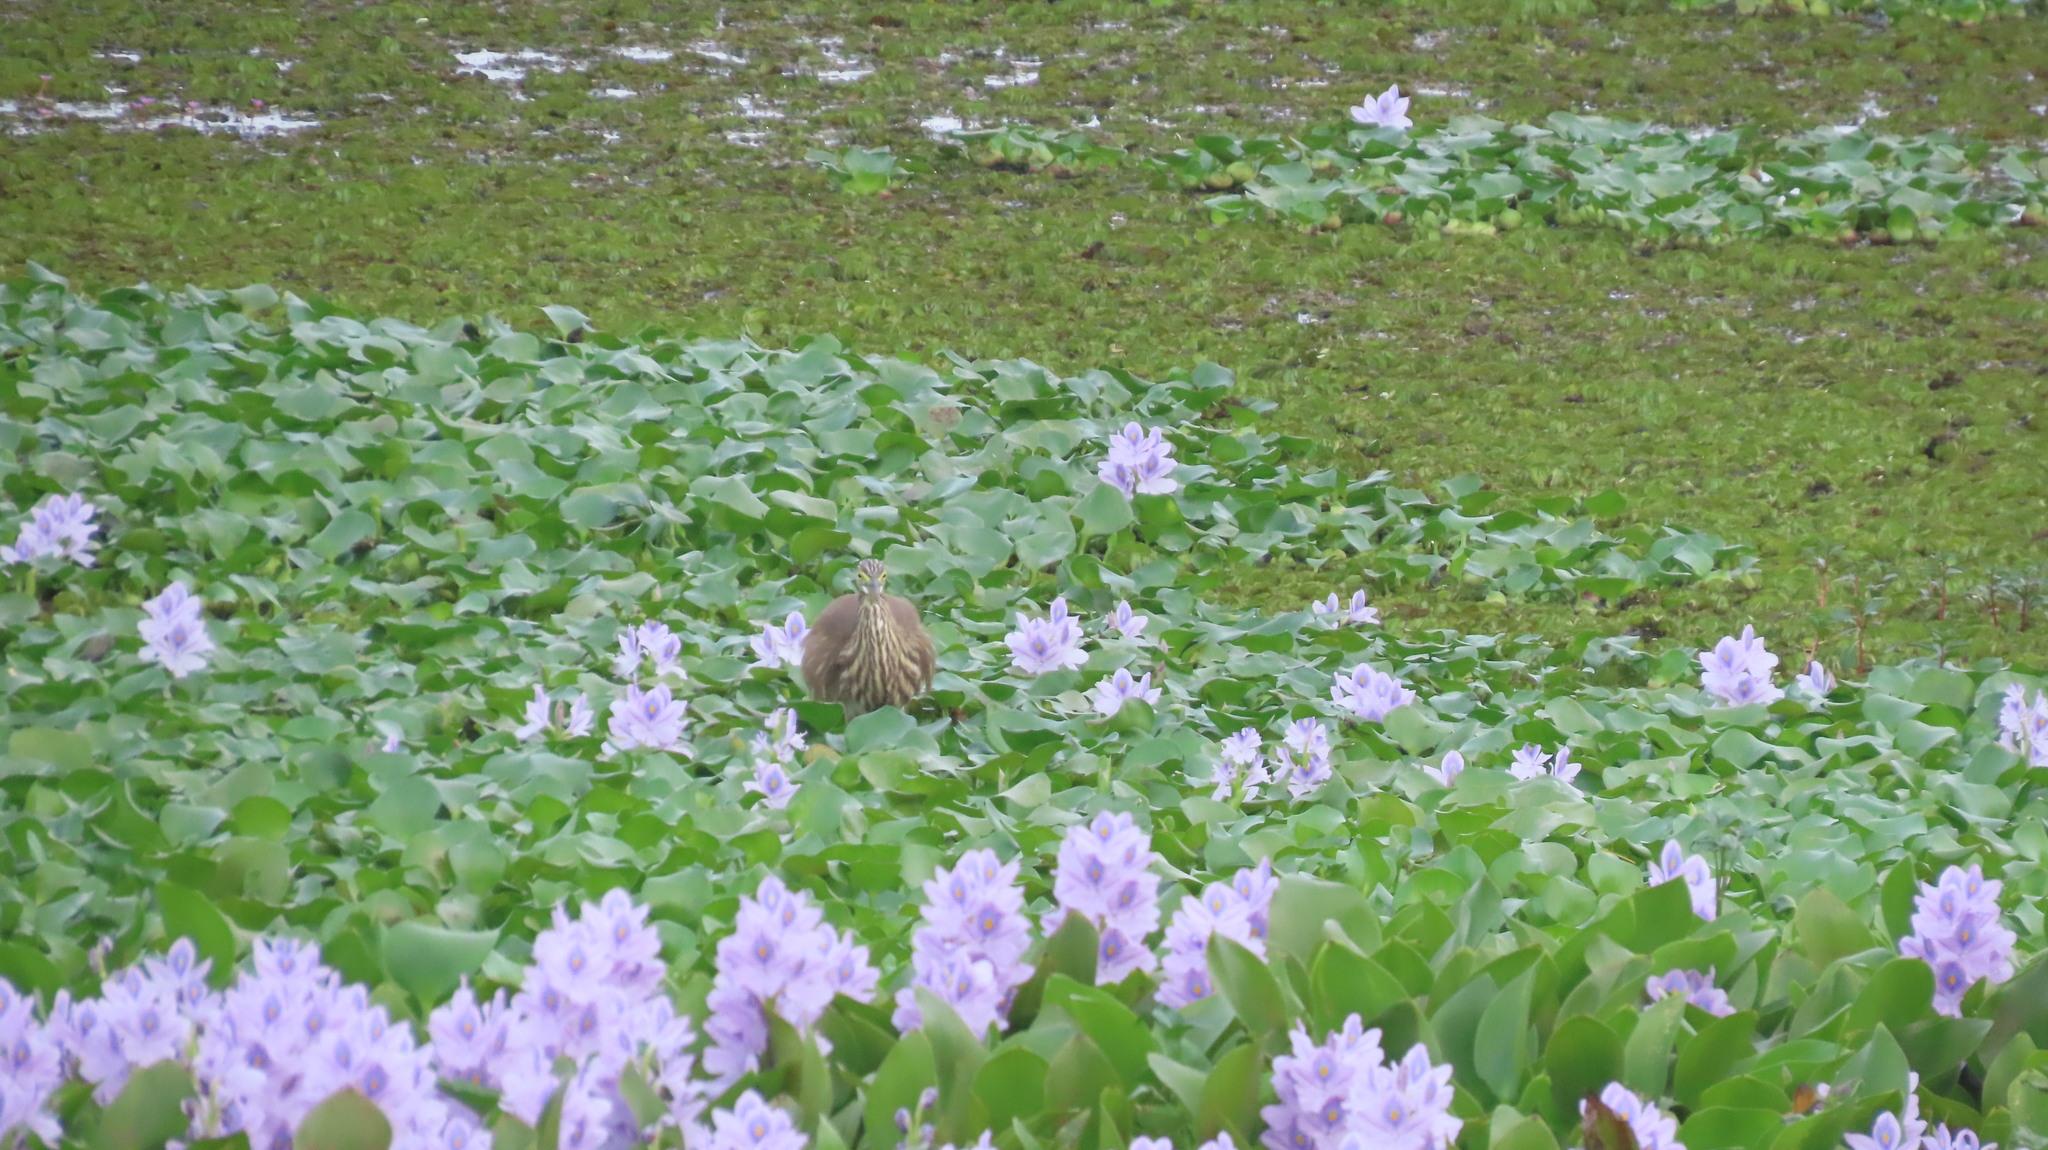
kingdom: Animalia
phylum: Chordata
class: Aves
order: Pelecaniformes
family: Ardeidae
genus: Ardeola
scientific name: Ardeola grayii
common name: Indian pond heron
